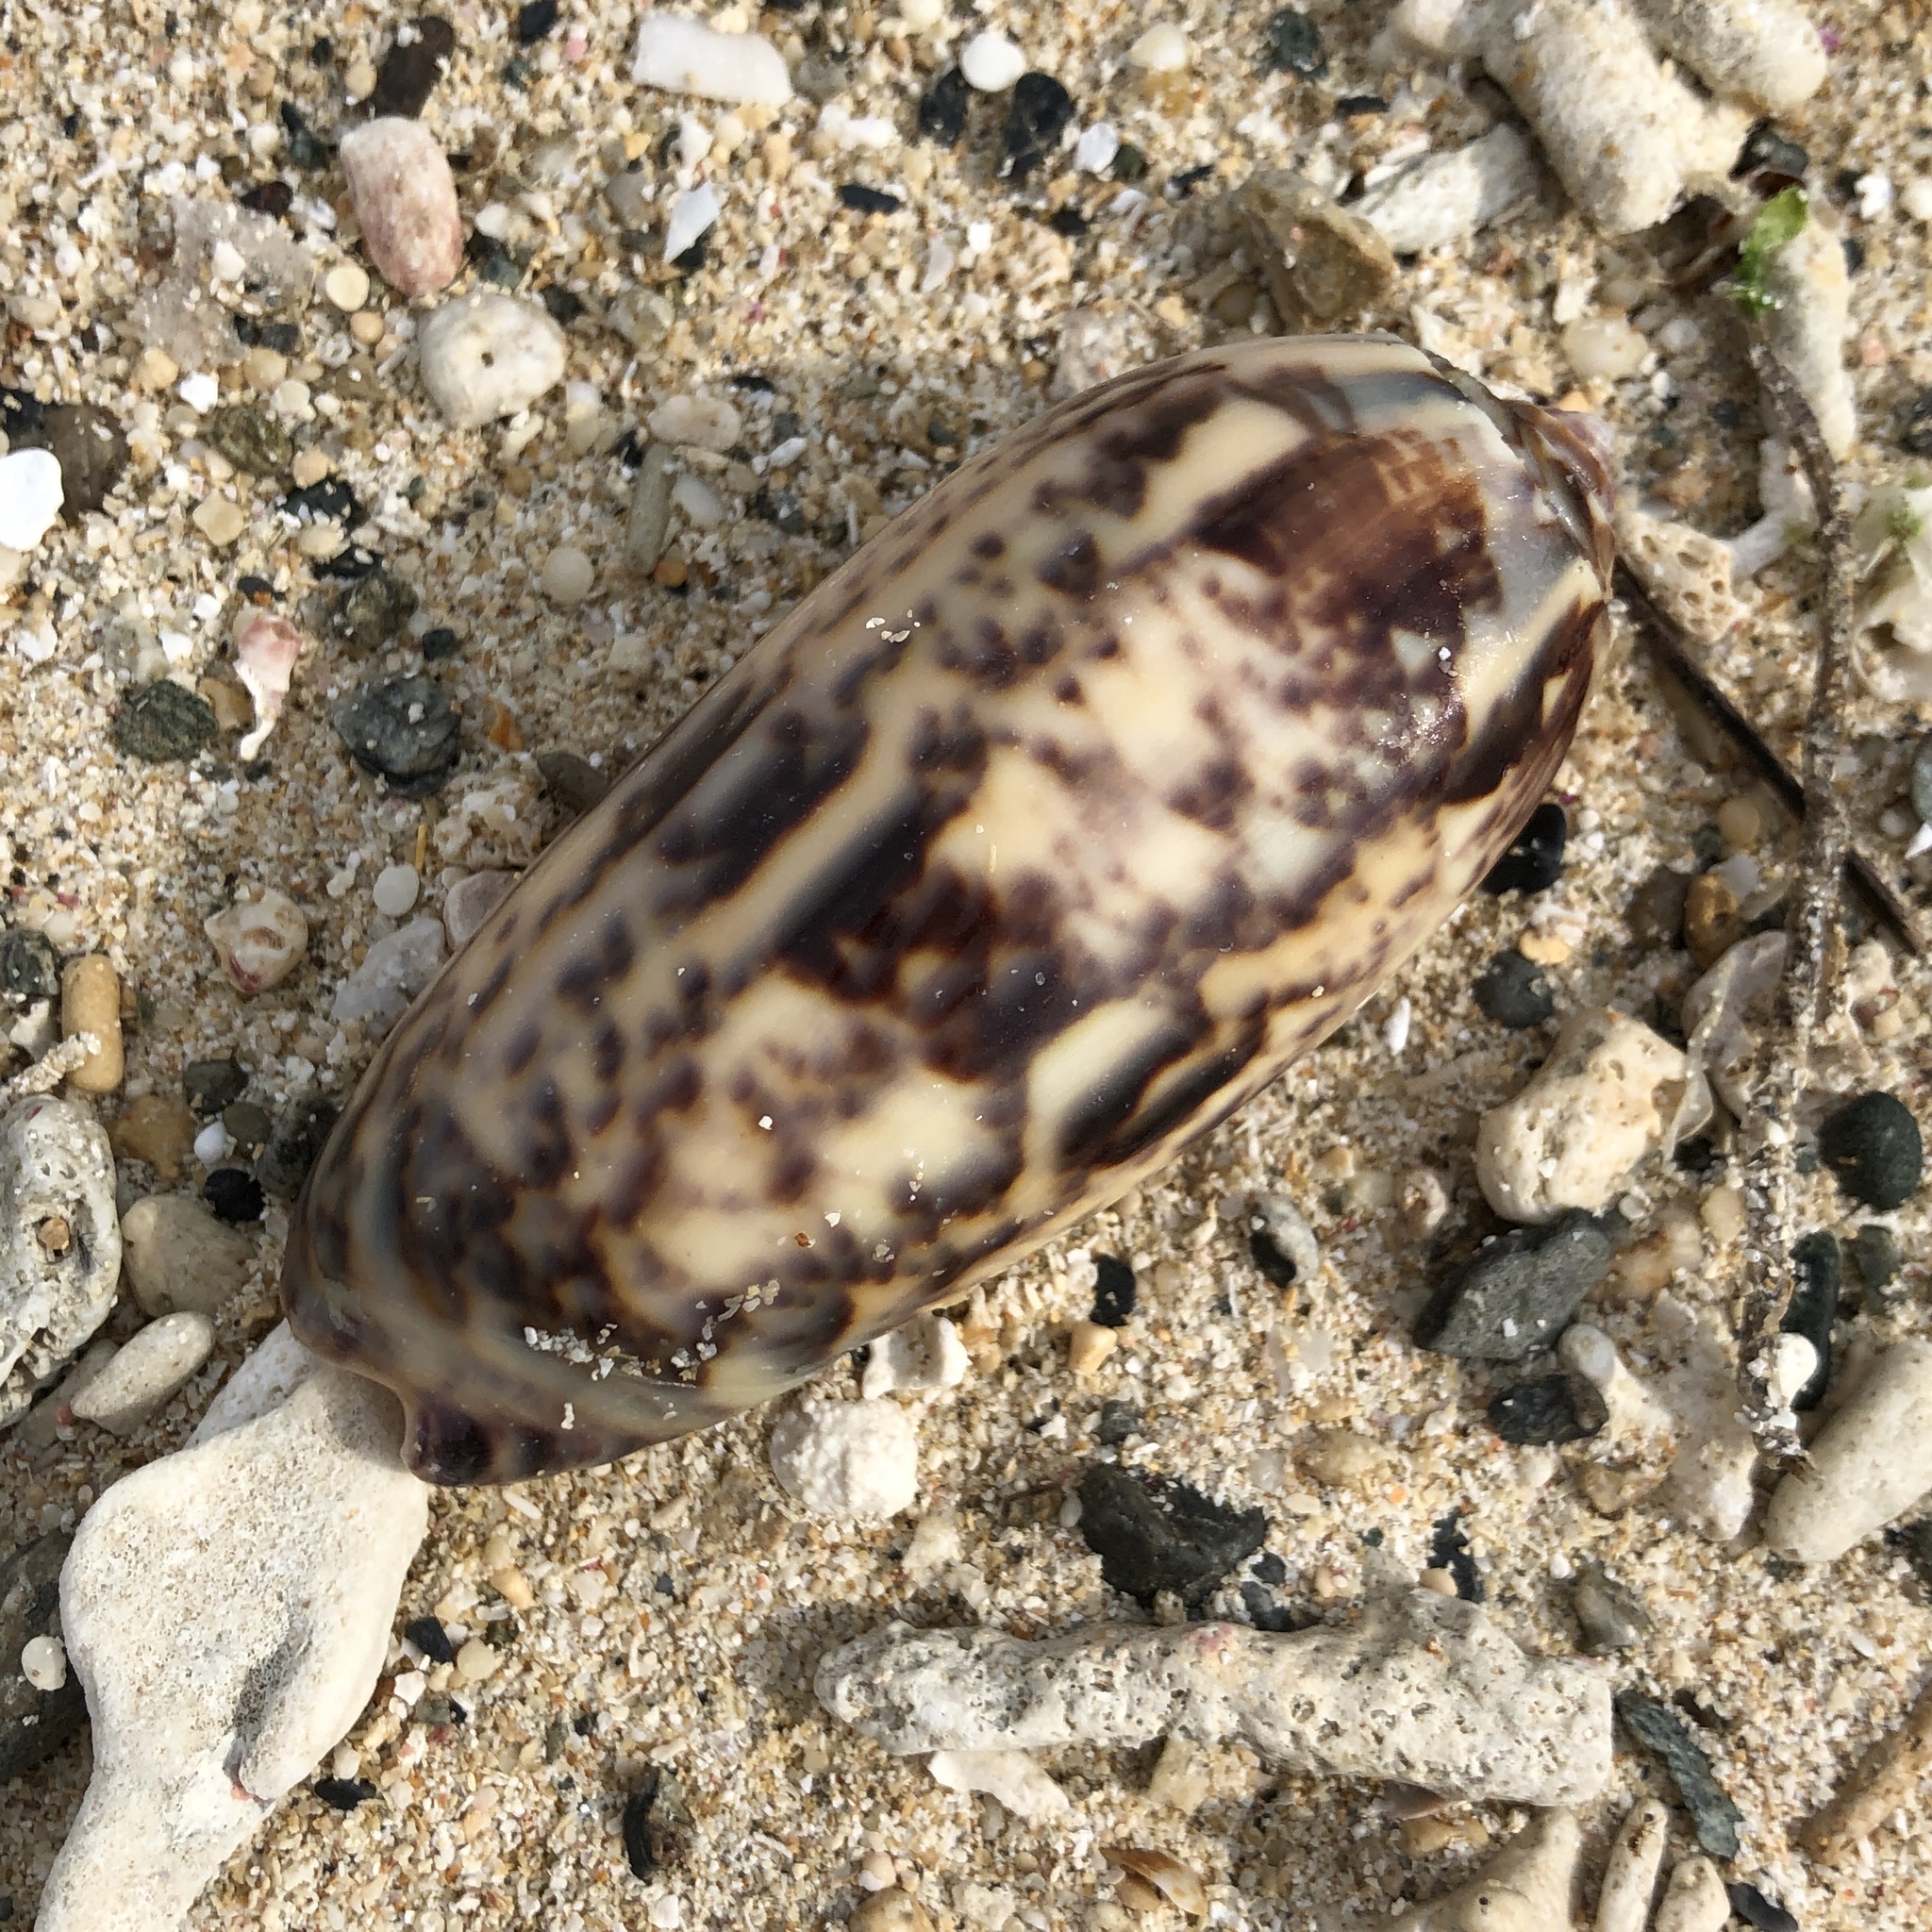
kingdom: Animalia
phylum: Mollusca
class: Gastropoda
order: Neogastropoda
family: Olividae
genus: Oliva
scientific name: Oliva miniacea
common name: Pacific common olive
